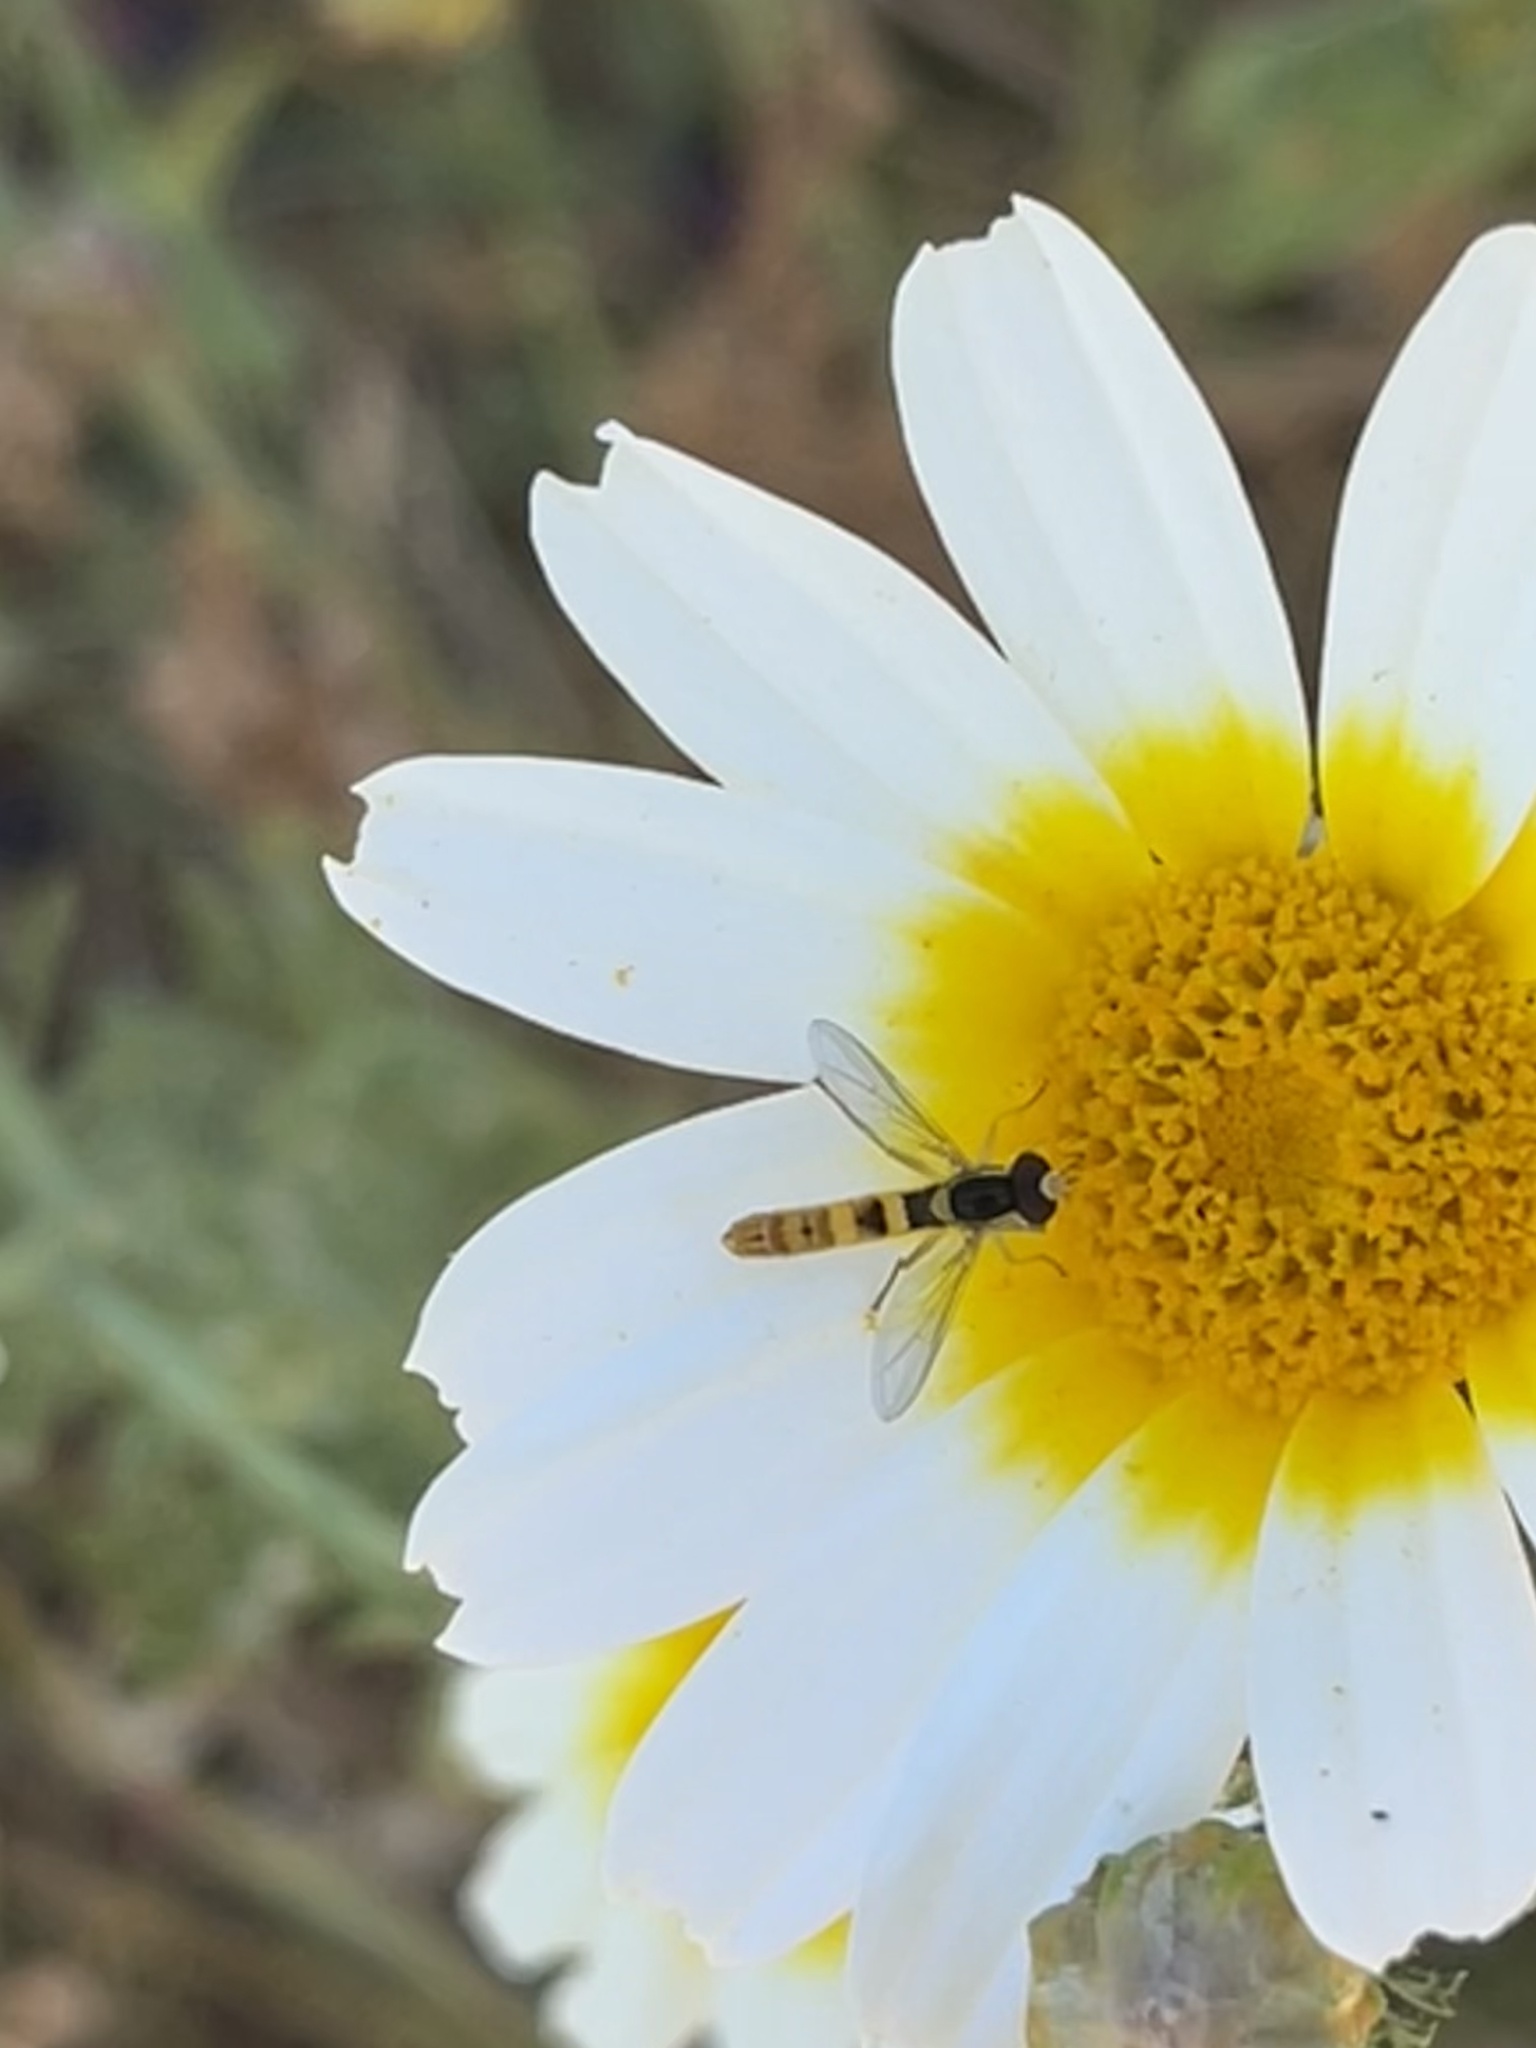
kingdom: Animalia
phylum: Arthropoda
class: Insecta
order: Diptera
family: Syrphidae
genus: Sphaerophoria
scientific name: Sphaerophoria scripta
